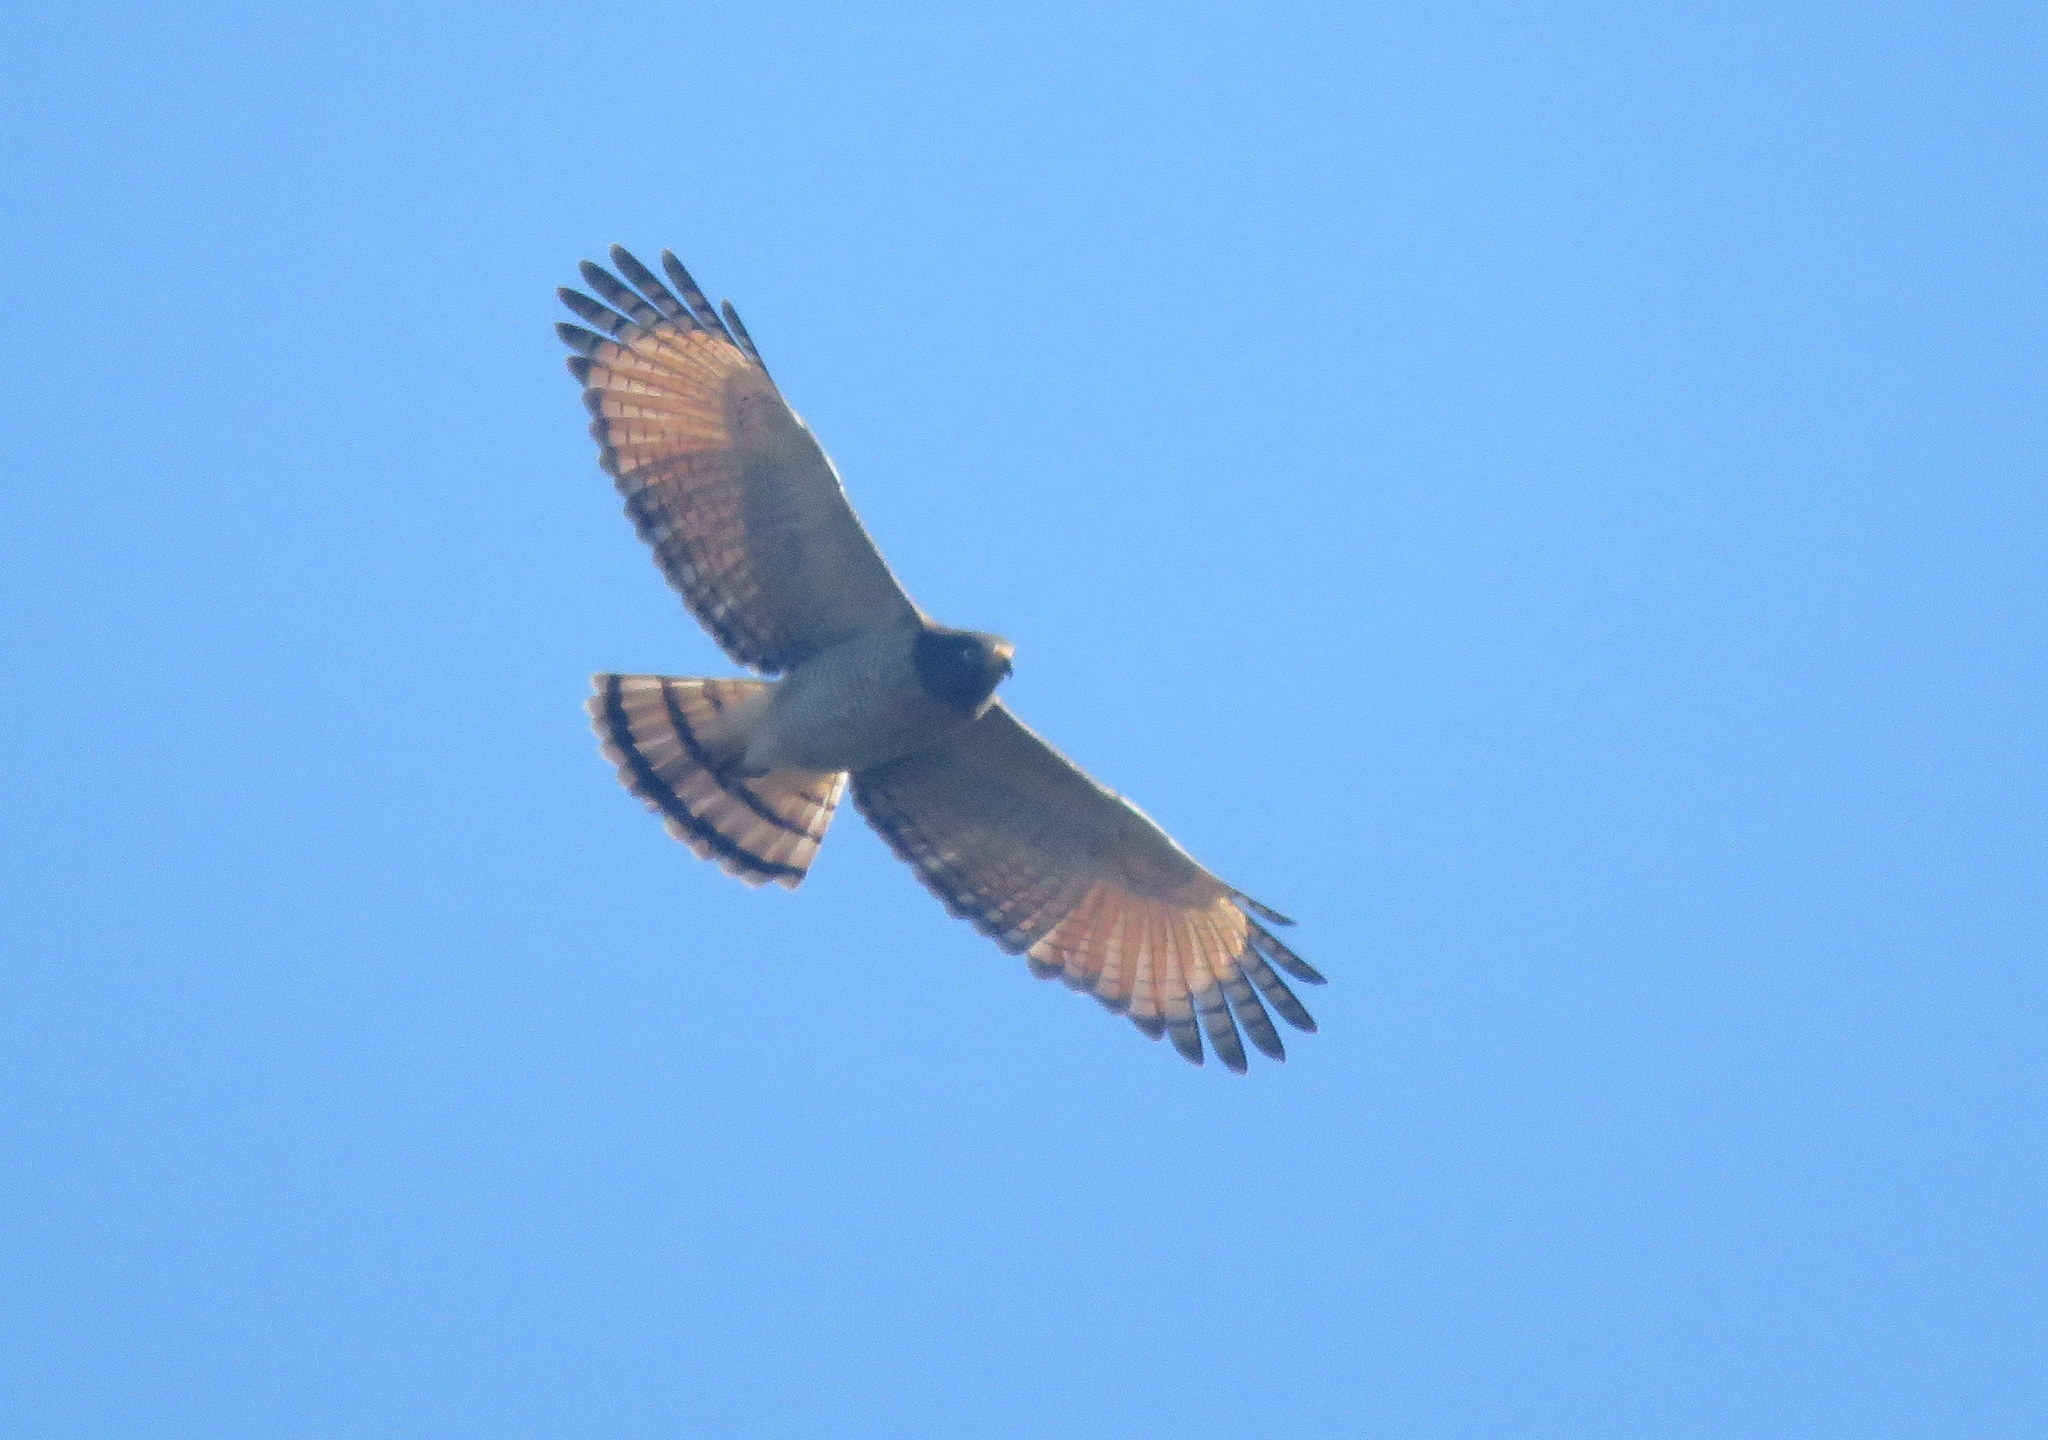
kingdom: Animalia
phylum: Chordata
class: Aves
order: Accipitriformes
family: Accipitridae
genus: Rupornis
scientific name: Rupornis magnirostris
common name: Roadside hawk
